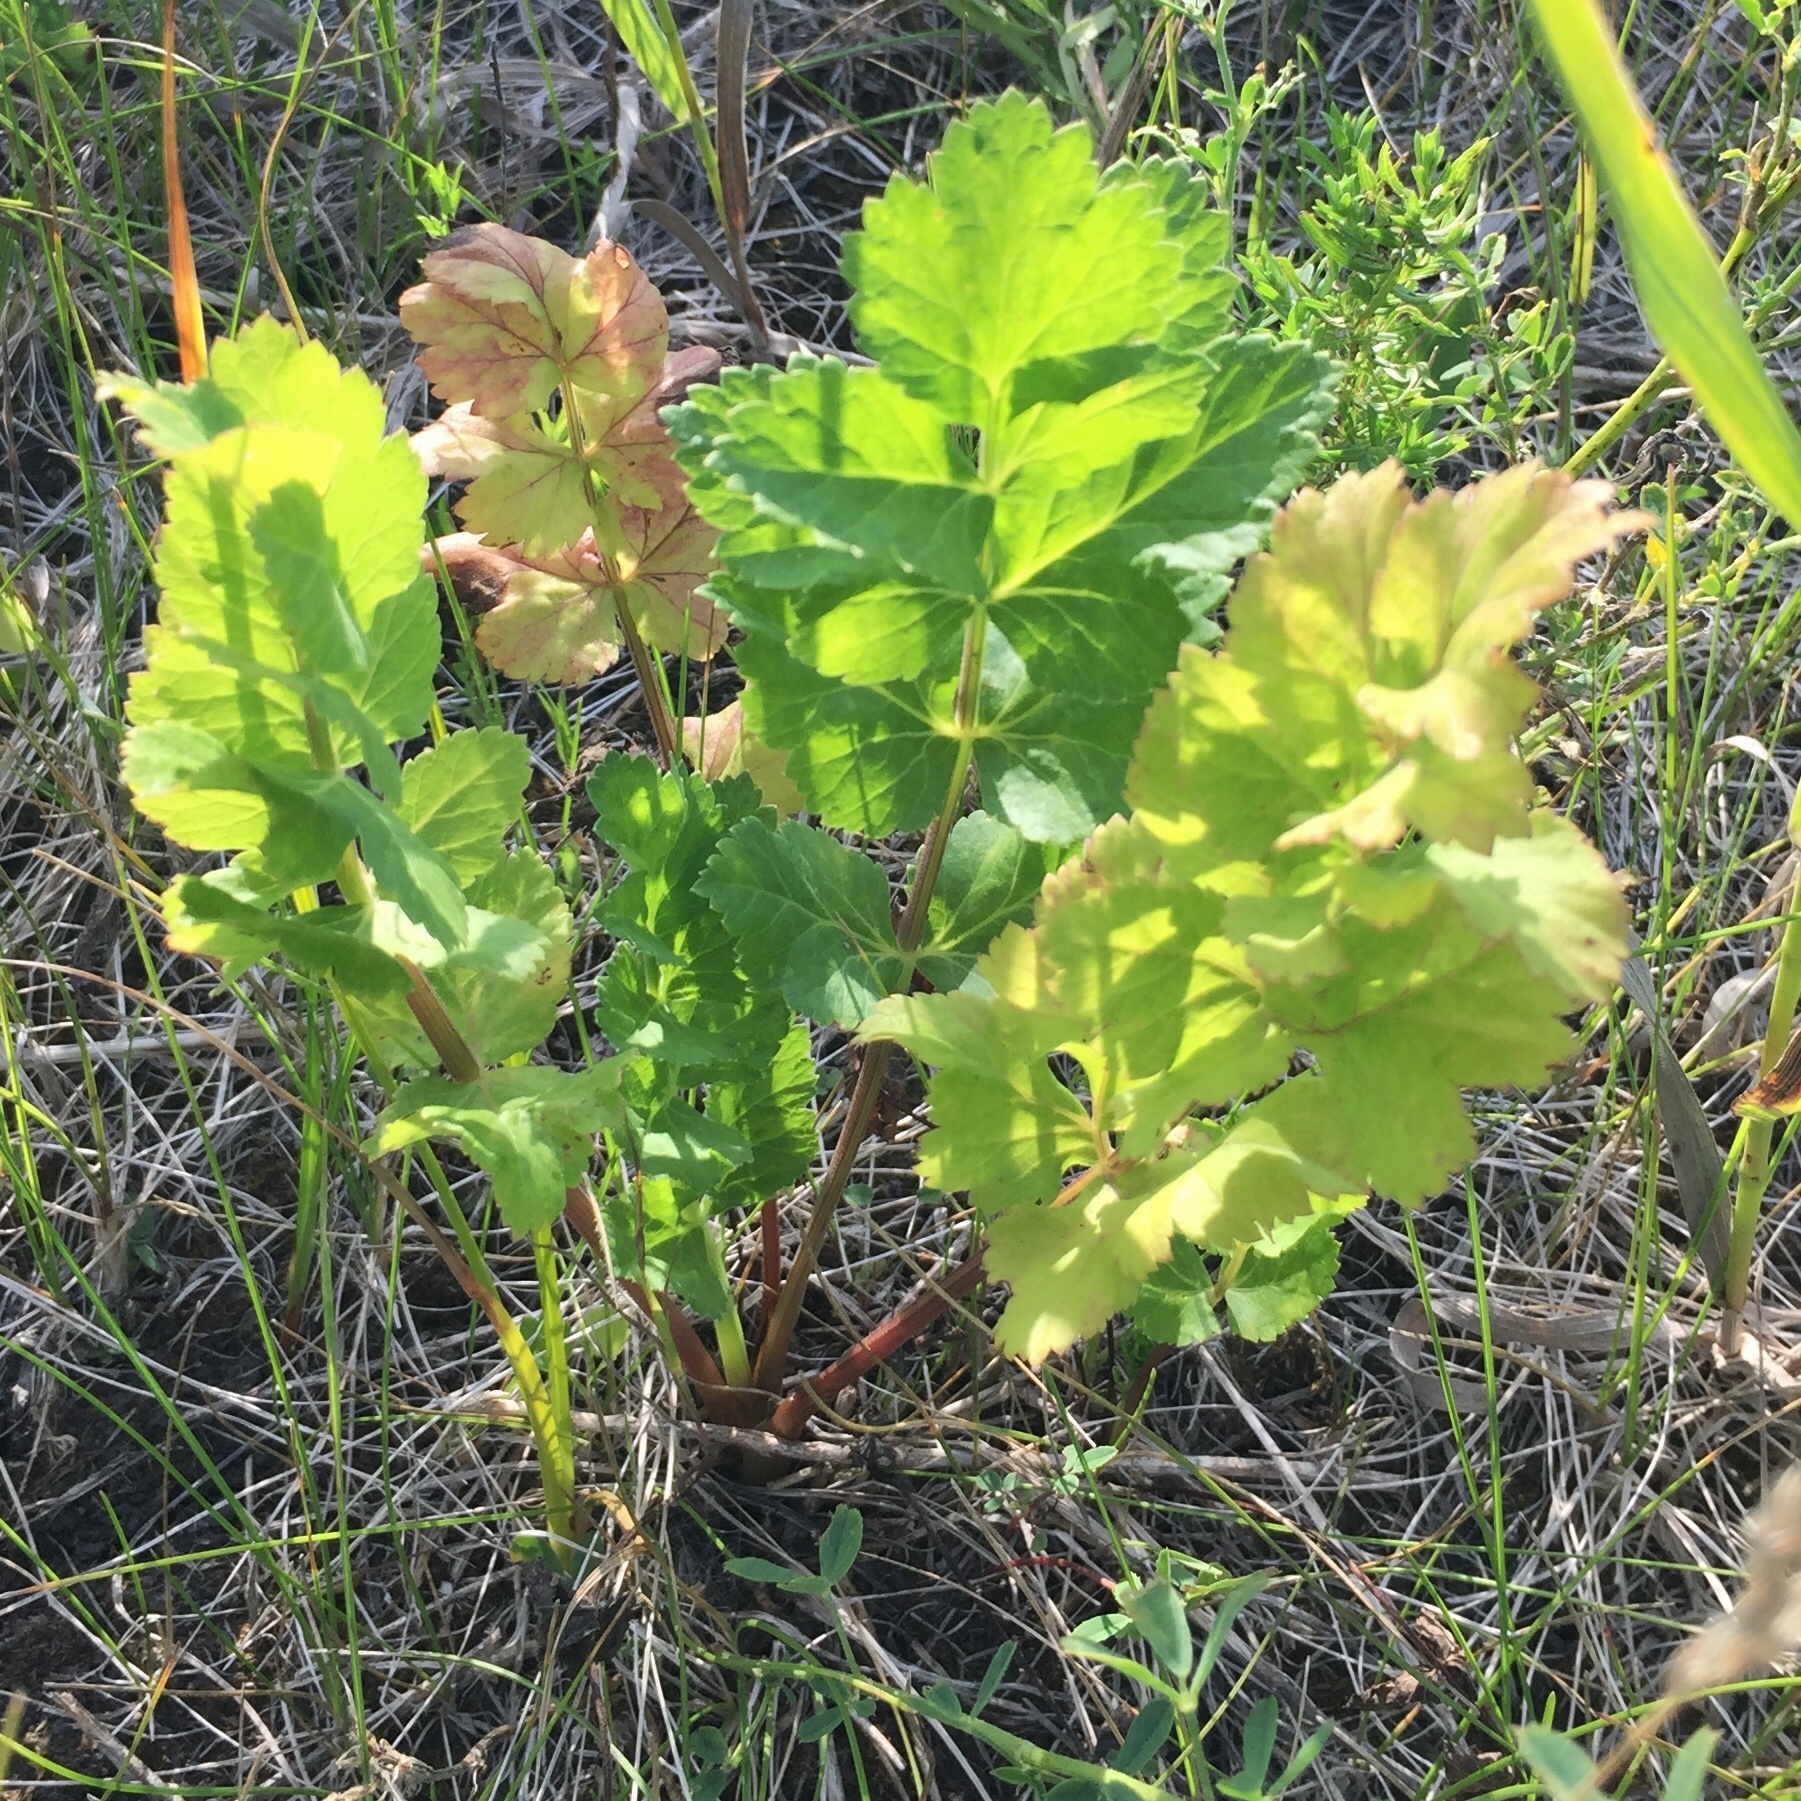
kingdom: Plantae
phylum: Tracheophyta
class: Magnoliopsida
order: Apiales
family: Apiaceae
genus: Pastinaca
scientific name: Pastinaca sativa
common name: Wild parsnip
